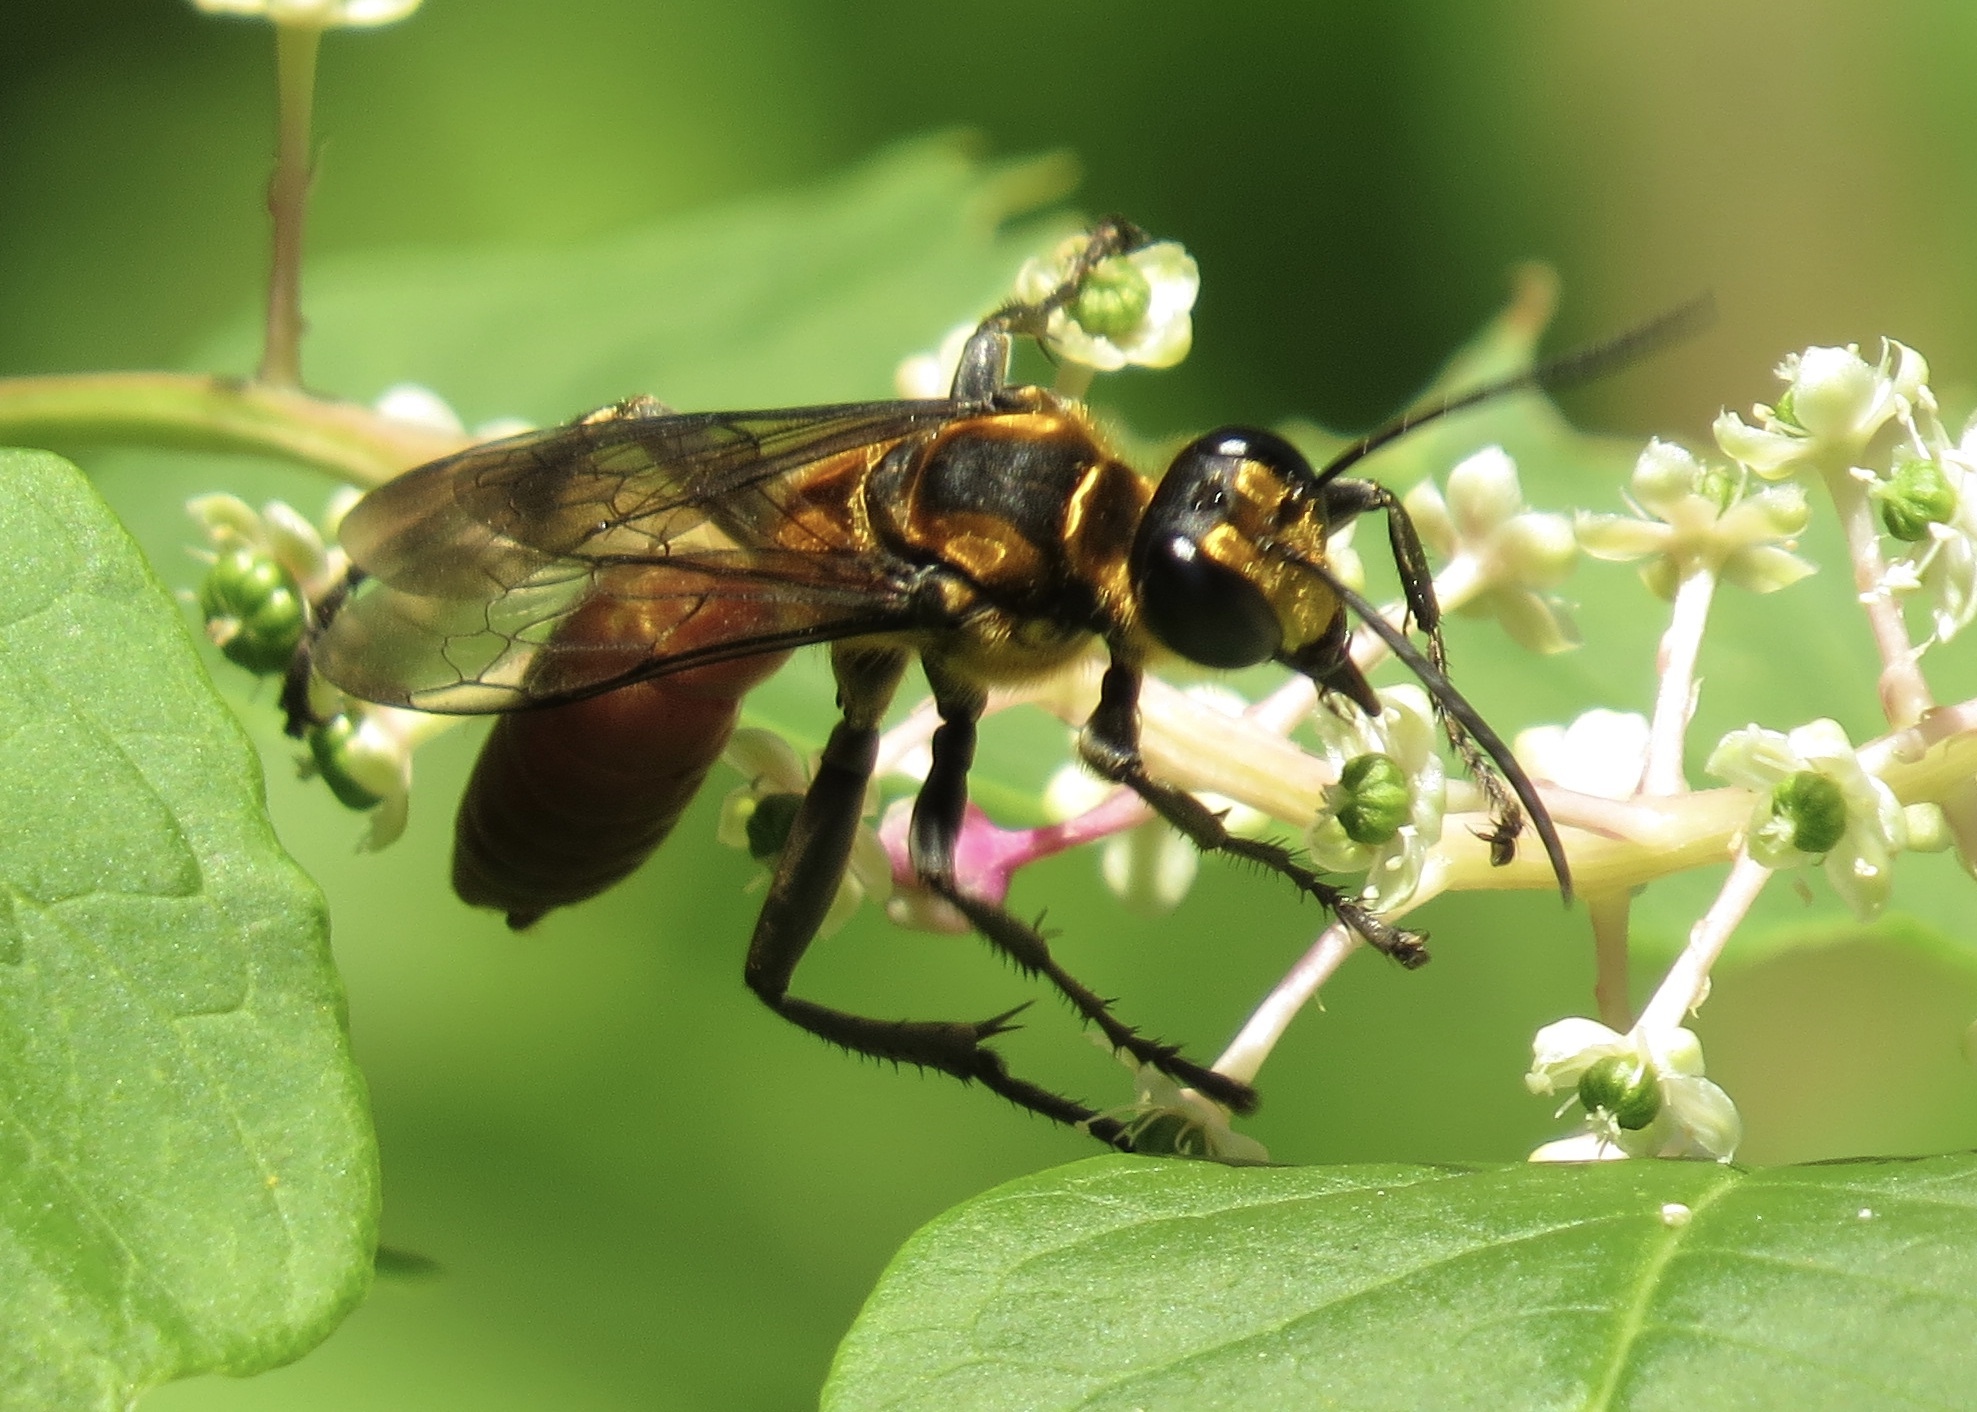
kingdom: Animalia
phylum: Arthropoda
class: Insecta
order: Hymenoptera
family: Sphecidae
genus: Sphex
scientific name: Sphex habenus
